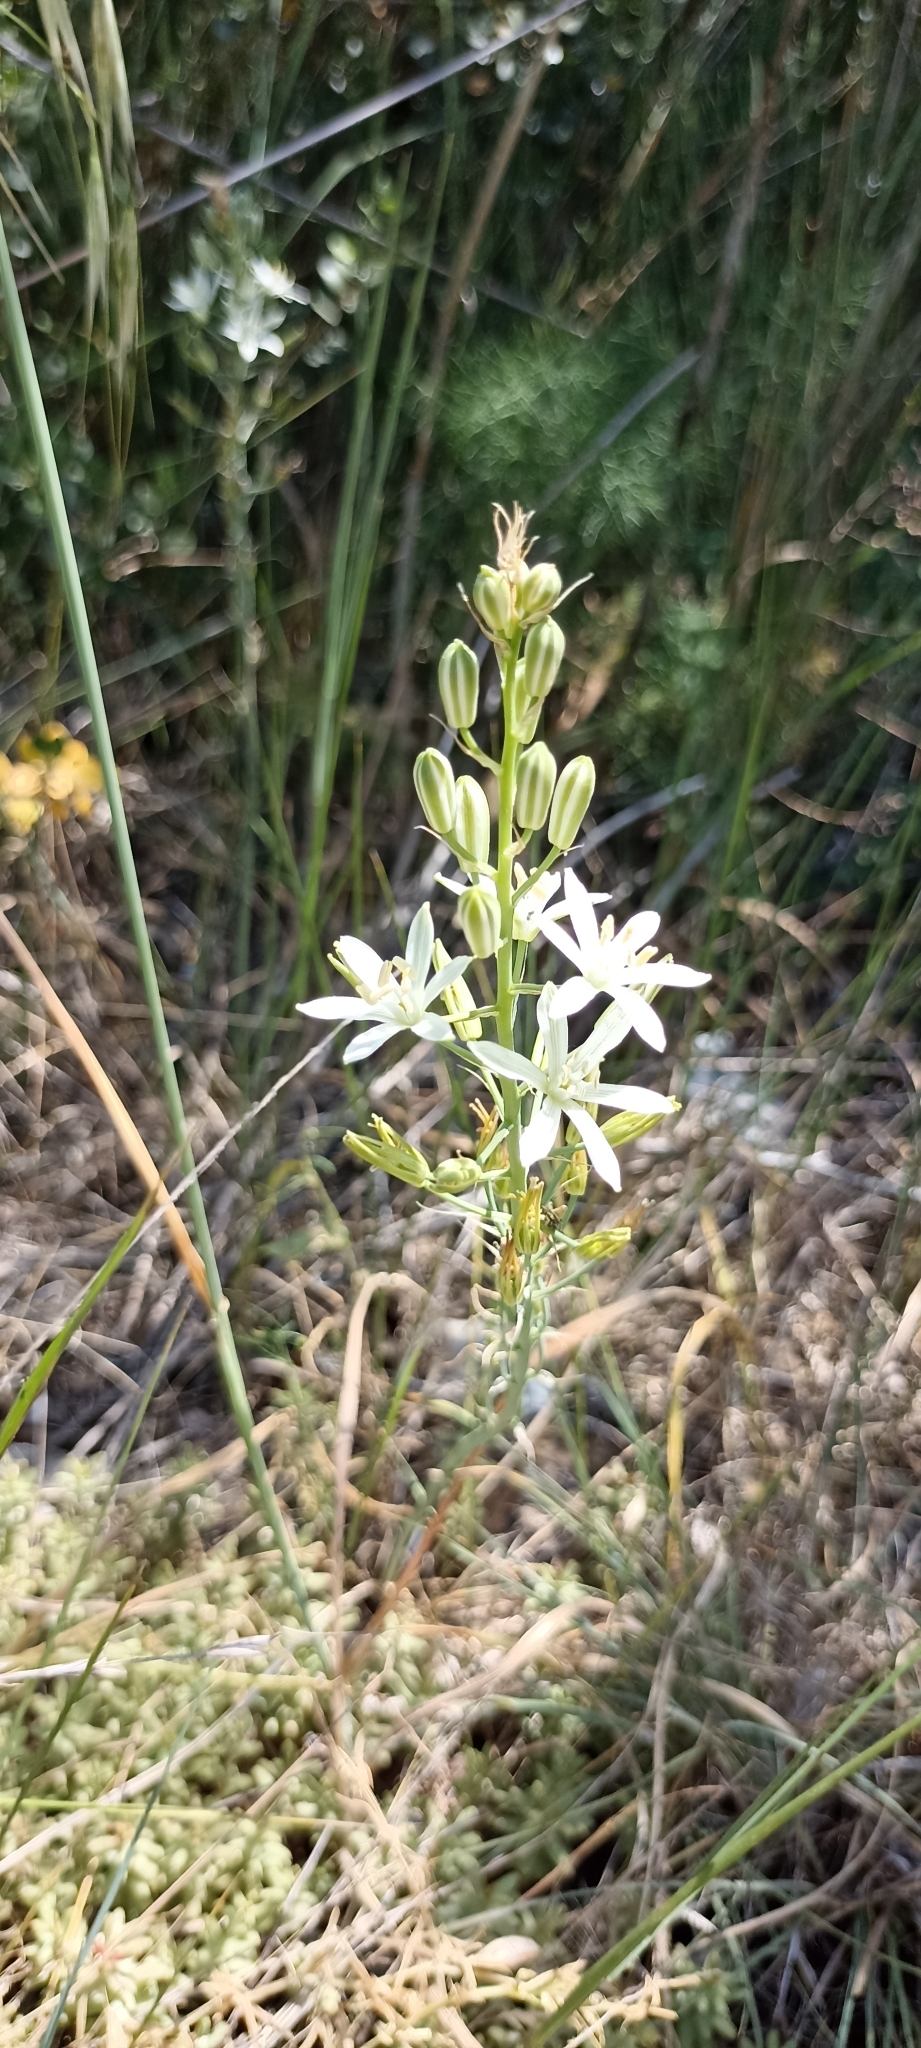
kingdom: Plantae
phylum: Tracheophyta
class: Liliopsida
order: Asparagales
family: Asparagaceae
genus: Ornithogalum
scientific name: Ornithogalum narbonense
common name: Bath-asparagus
